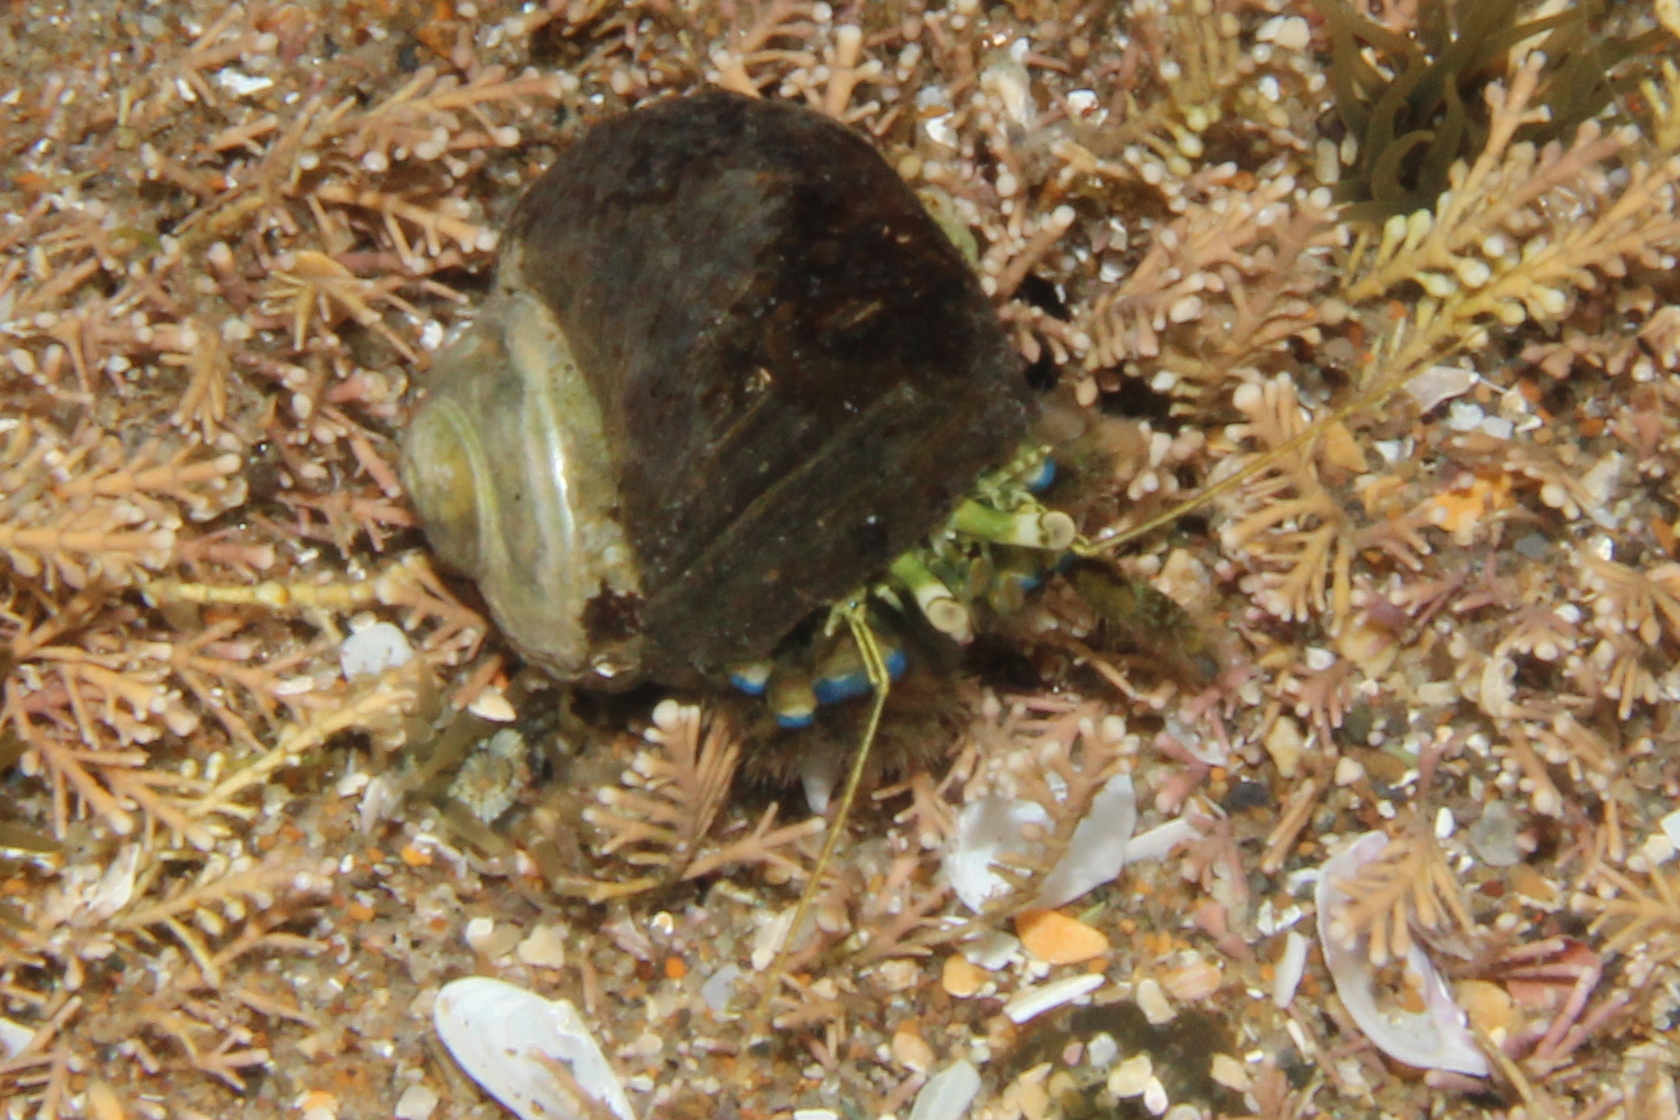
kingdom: Animalia
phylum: Arthropoda
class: Malacostraca
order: Decapoda
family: Paguridae
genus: Pagurus
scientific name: Pagurus novizealandiae
